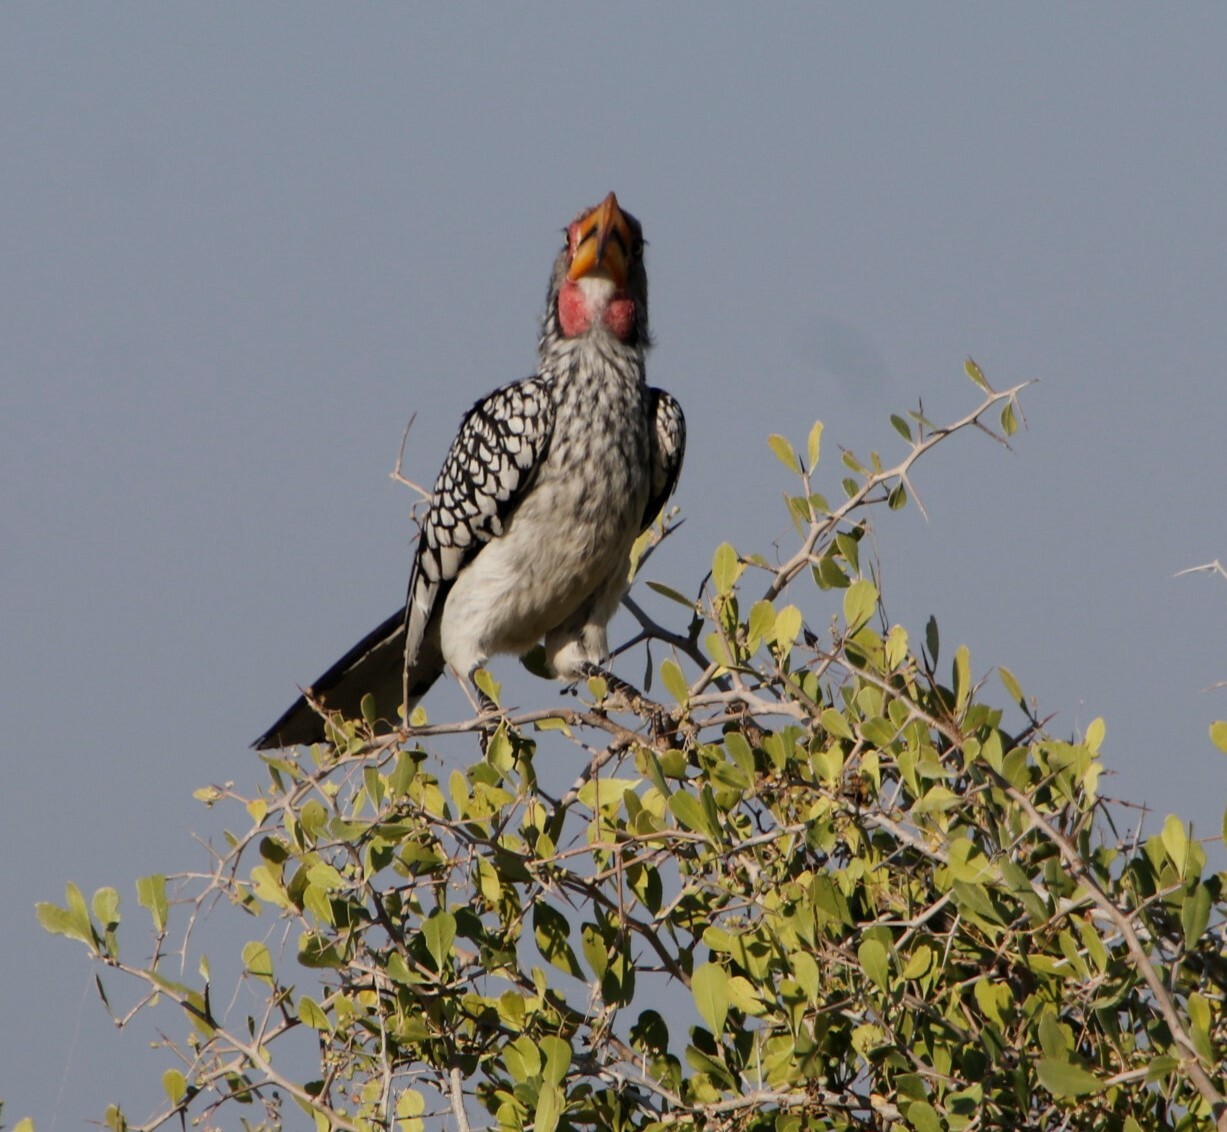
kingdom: Animalia
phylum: Chordata
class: Aves
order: Bucerotiformes
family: Bucerotidae
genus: Tockus
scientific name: Tockus leucomelas
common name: Southern yellow-billed hornbill
